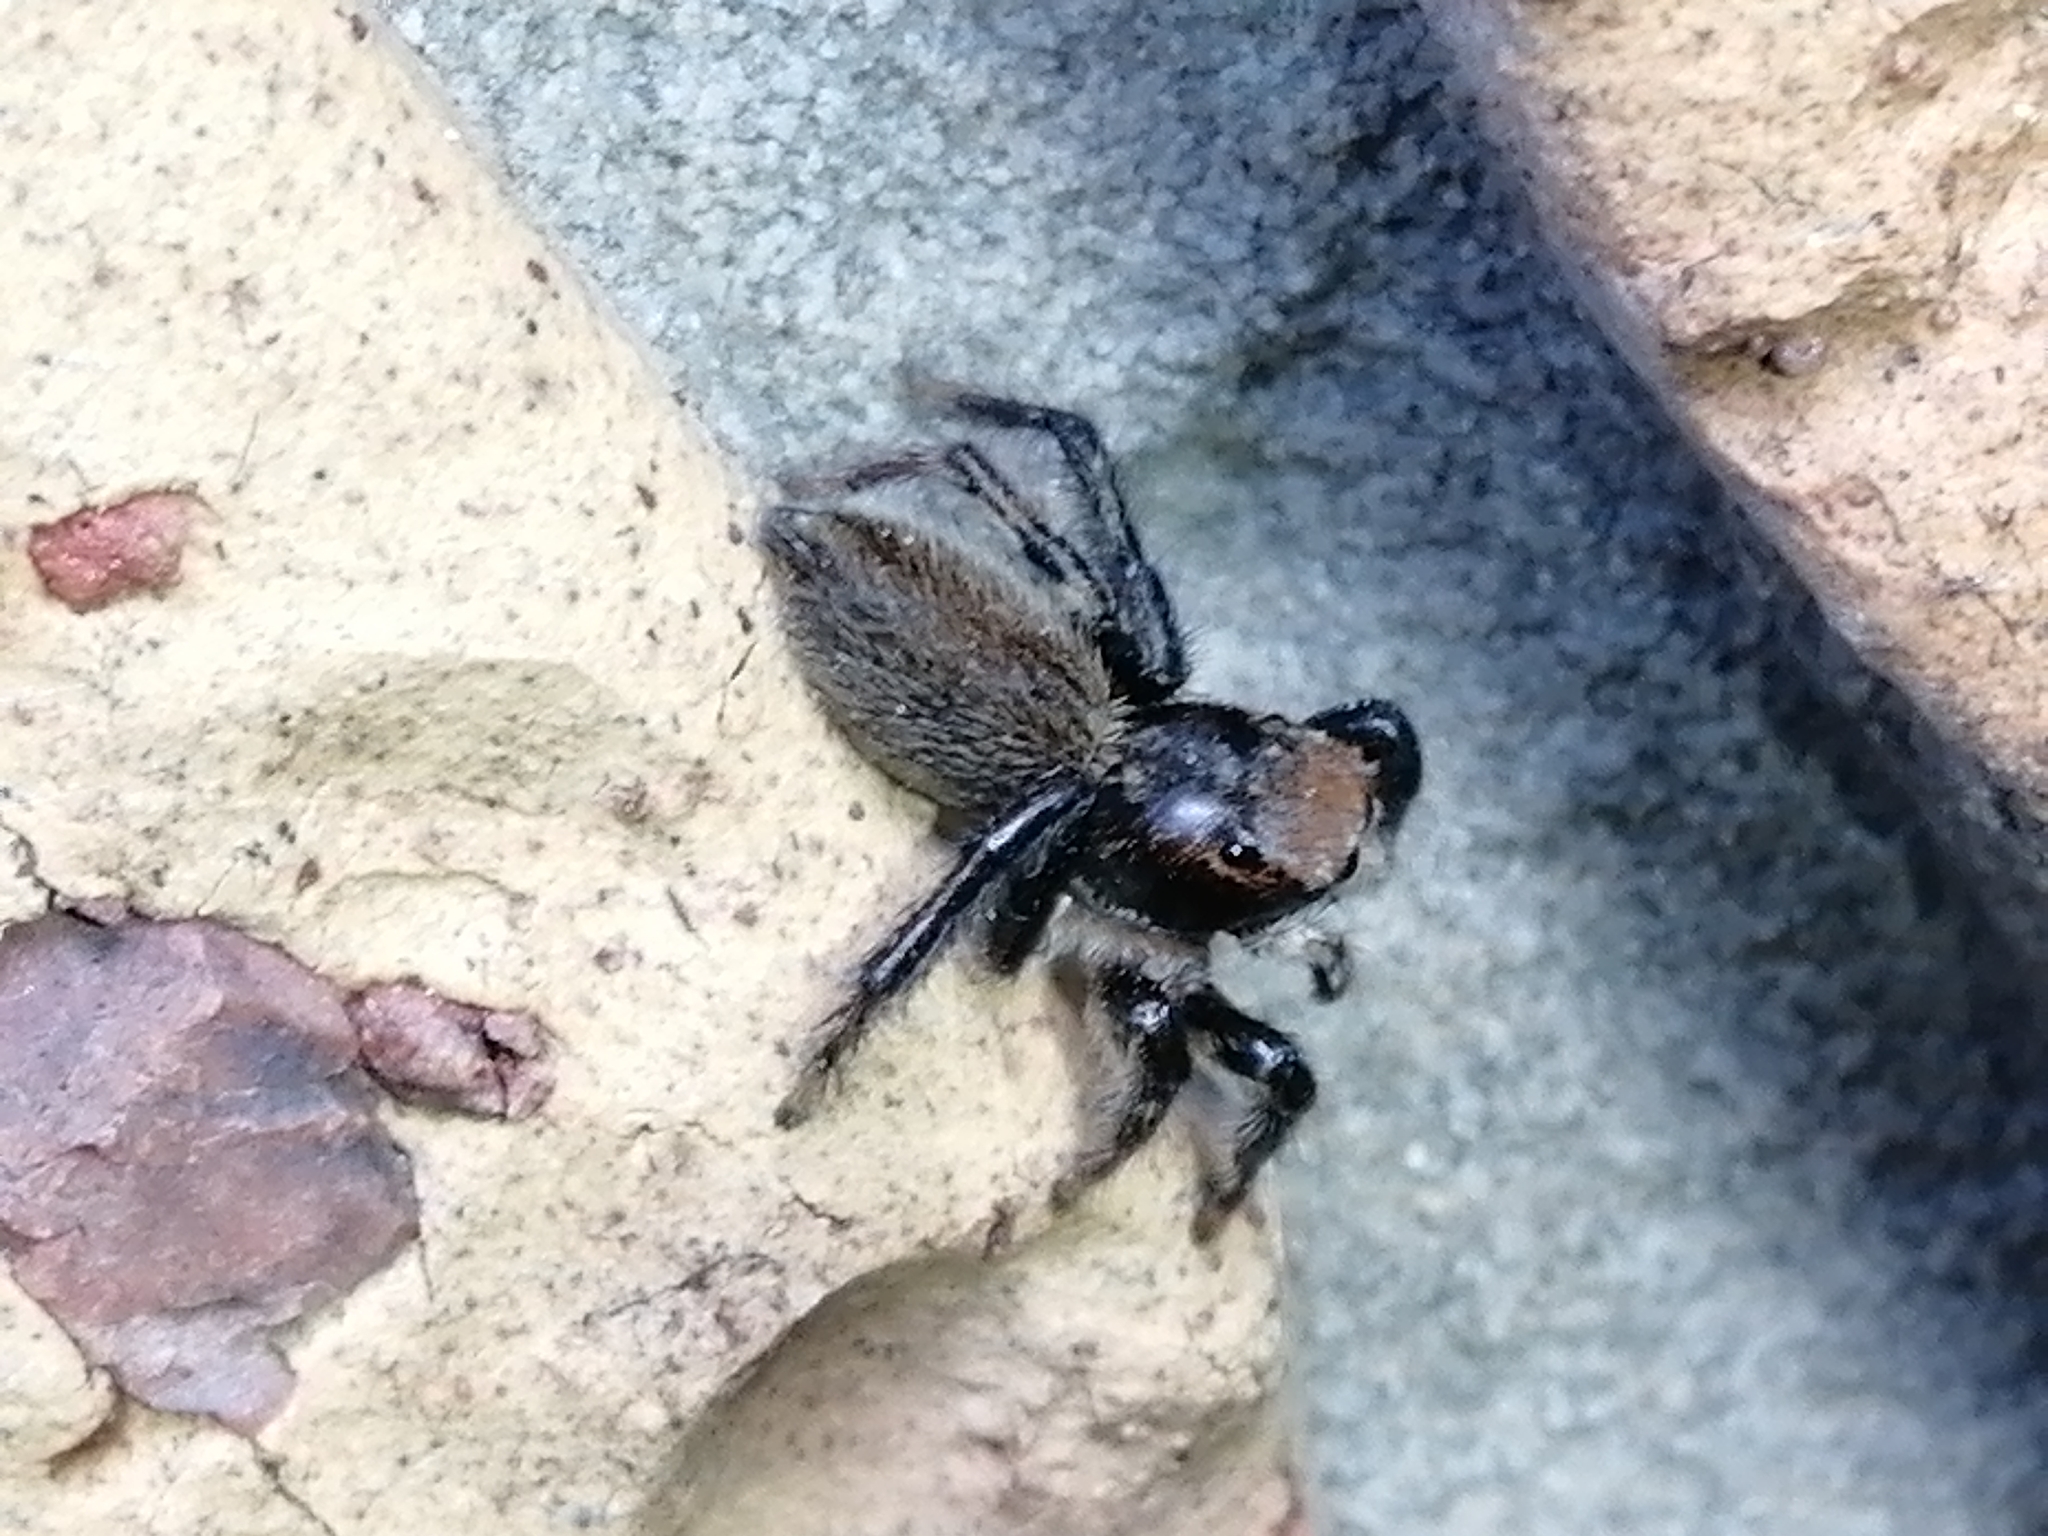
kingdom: Animalia
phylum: Arthropoda
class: Arachnida
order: Araneae
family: Salticidae
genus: Maratus
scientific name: Maratus griseus
